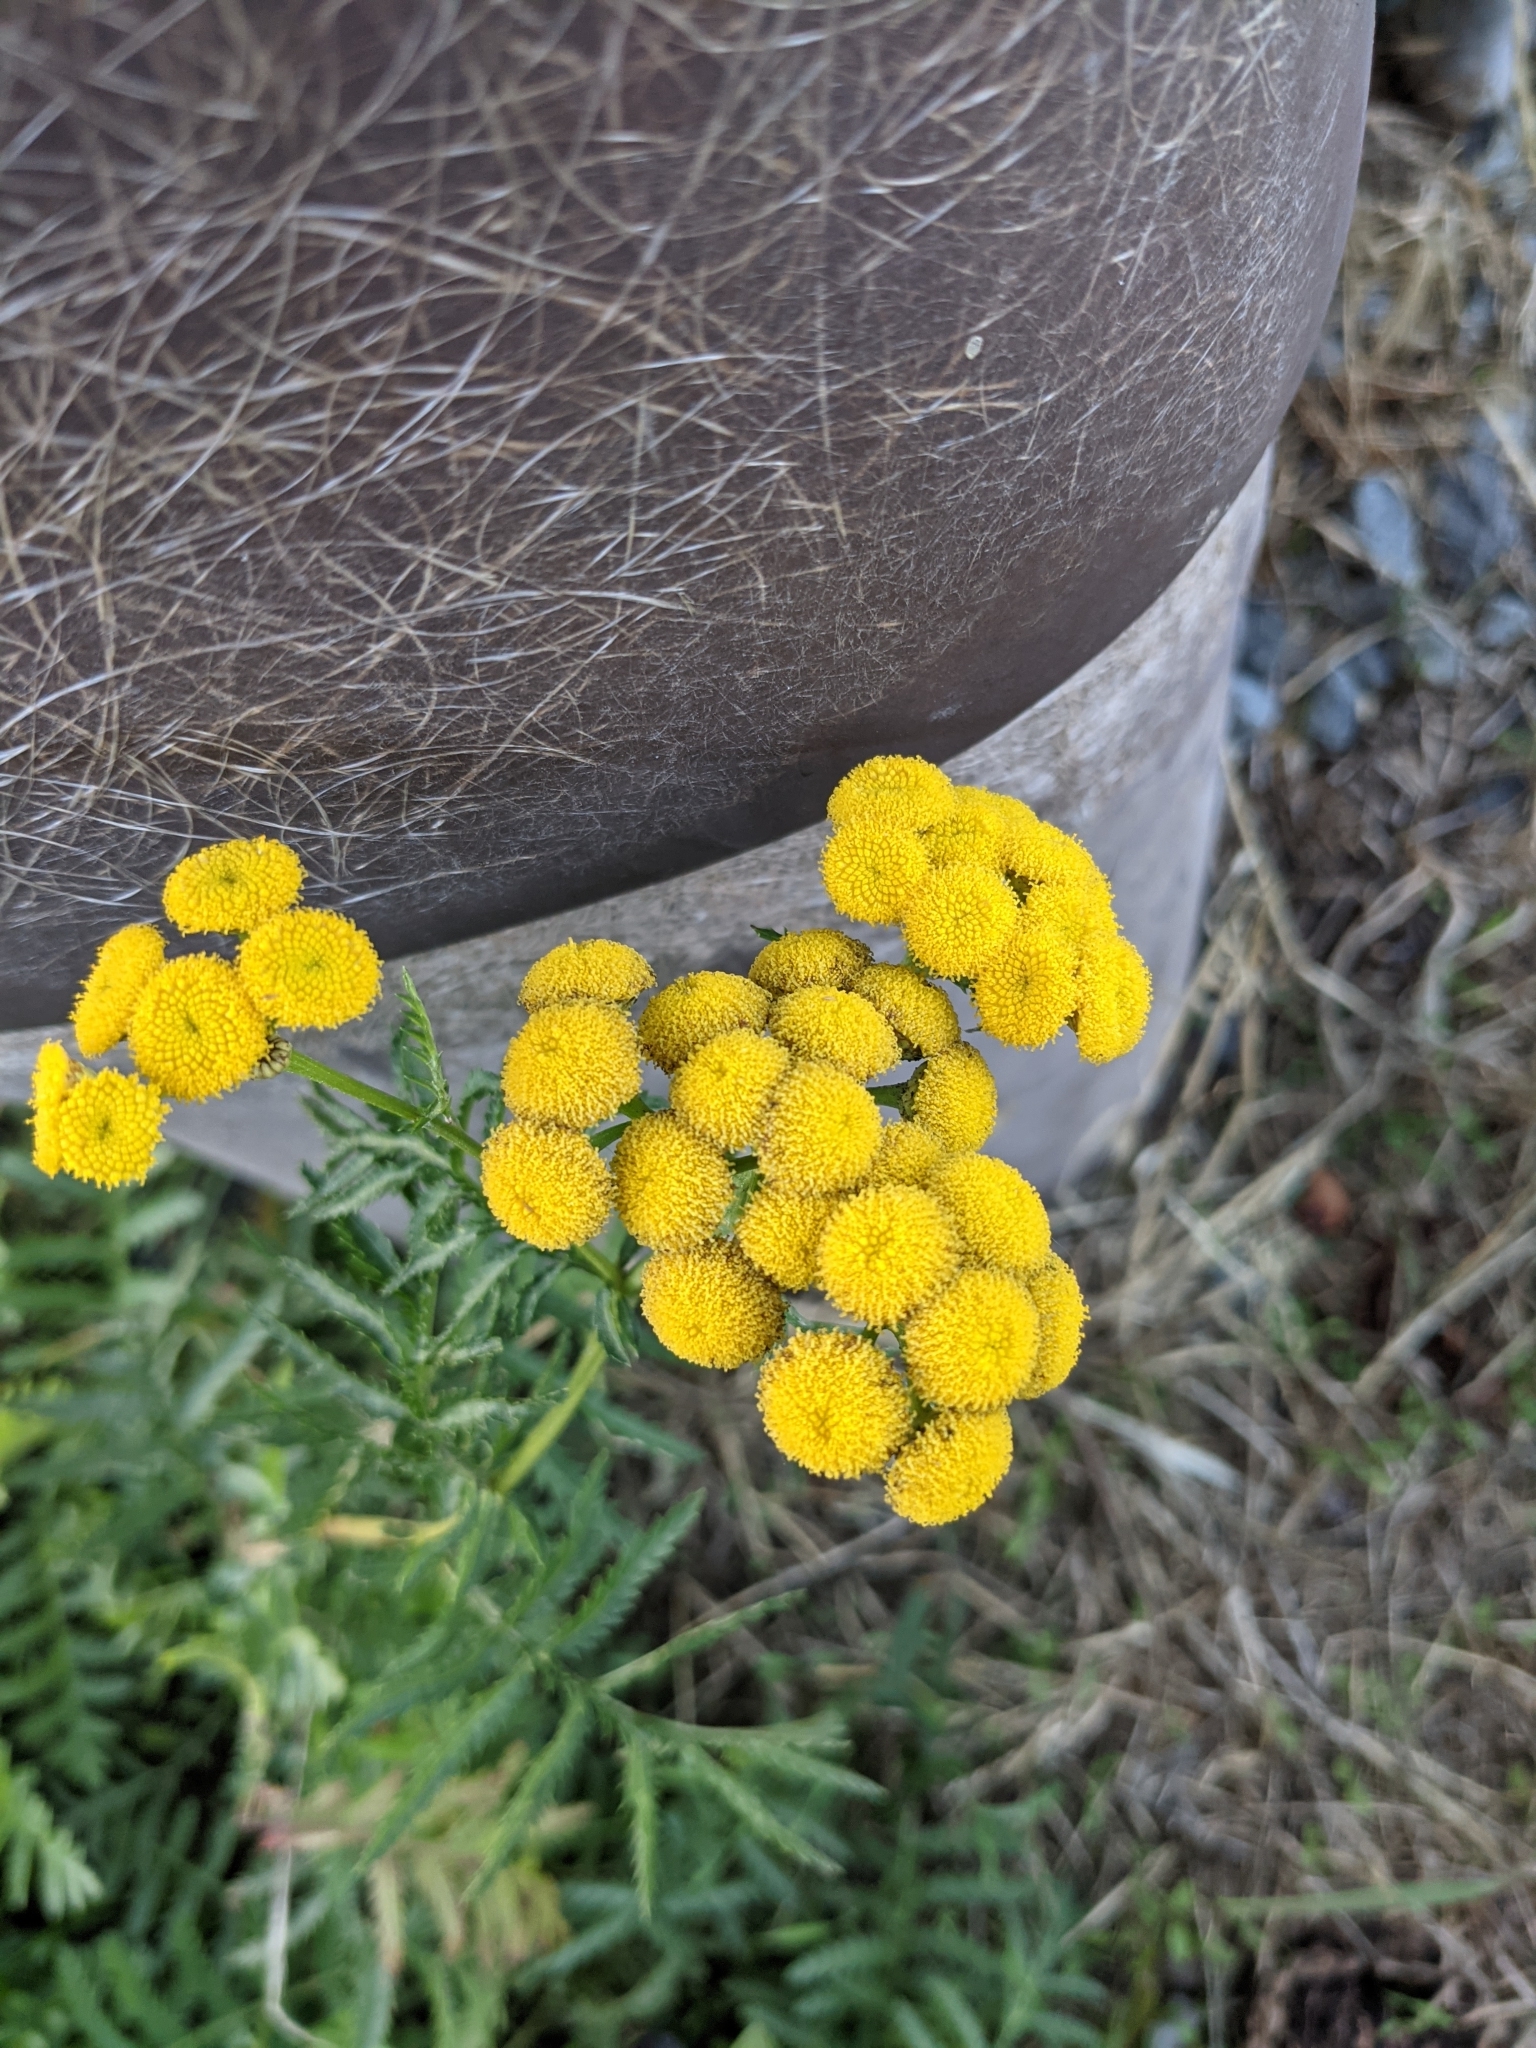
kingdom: Plantae
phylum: Tracheophyta
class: Magnoliopsida
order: Asterales
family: Asteraceae
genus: Tanacetum
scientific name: Tanacetum vulgare
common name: Common tansy
